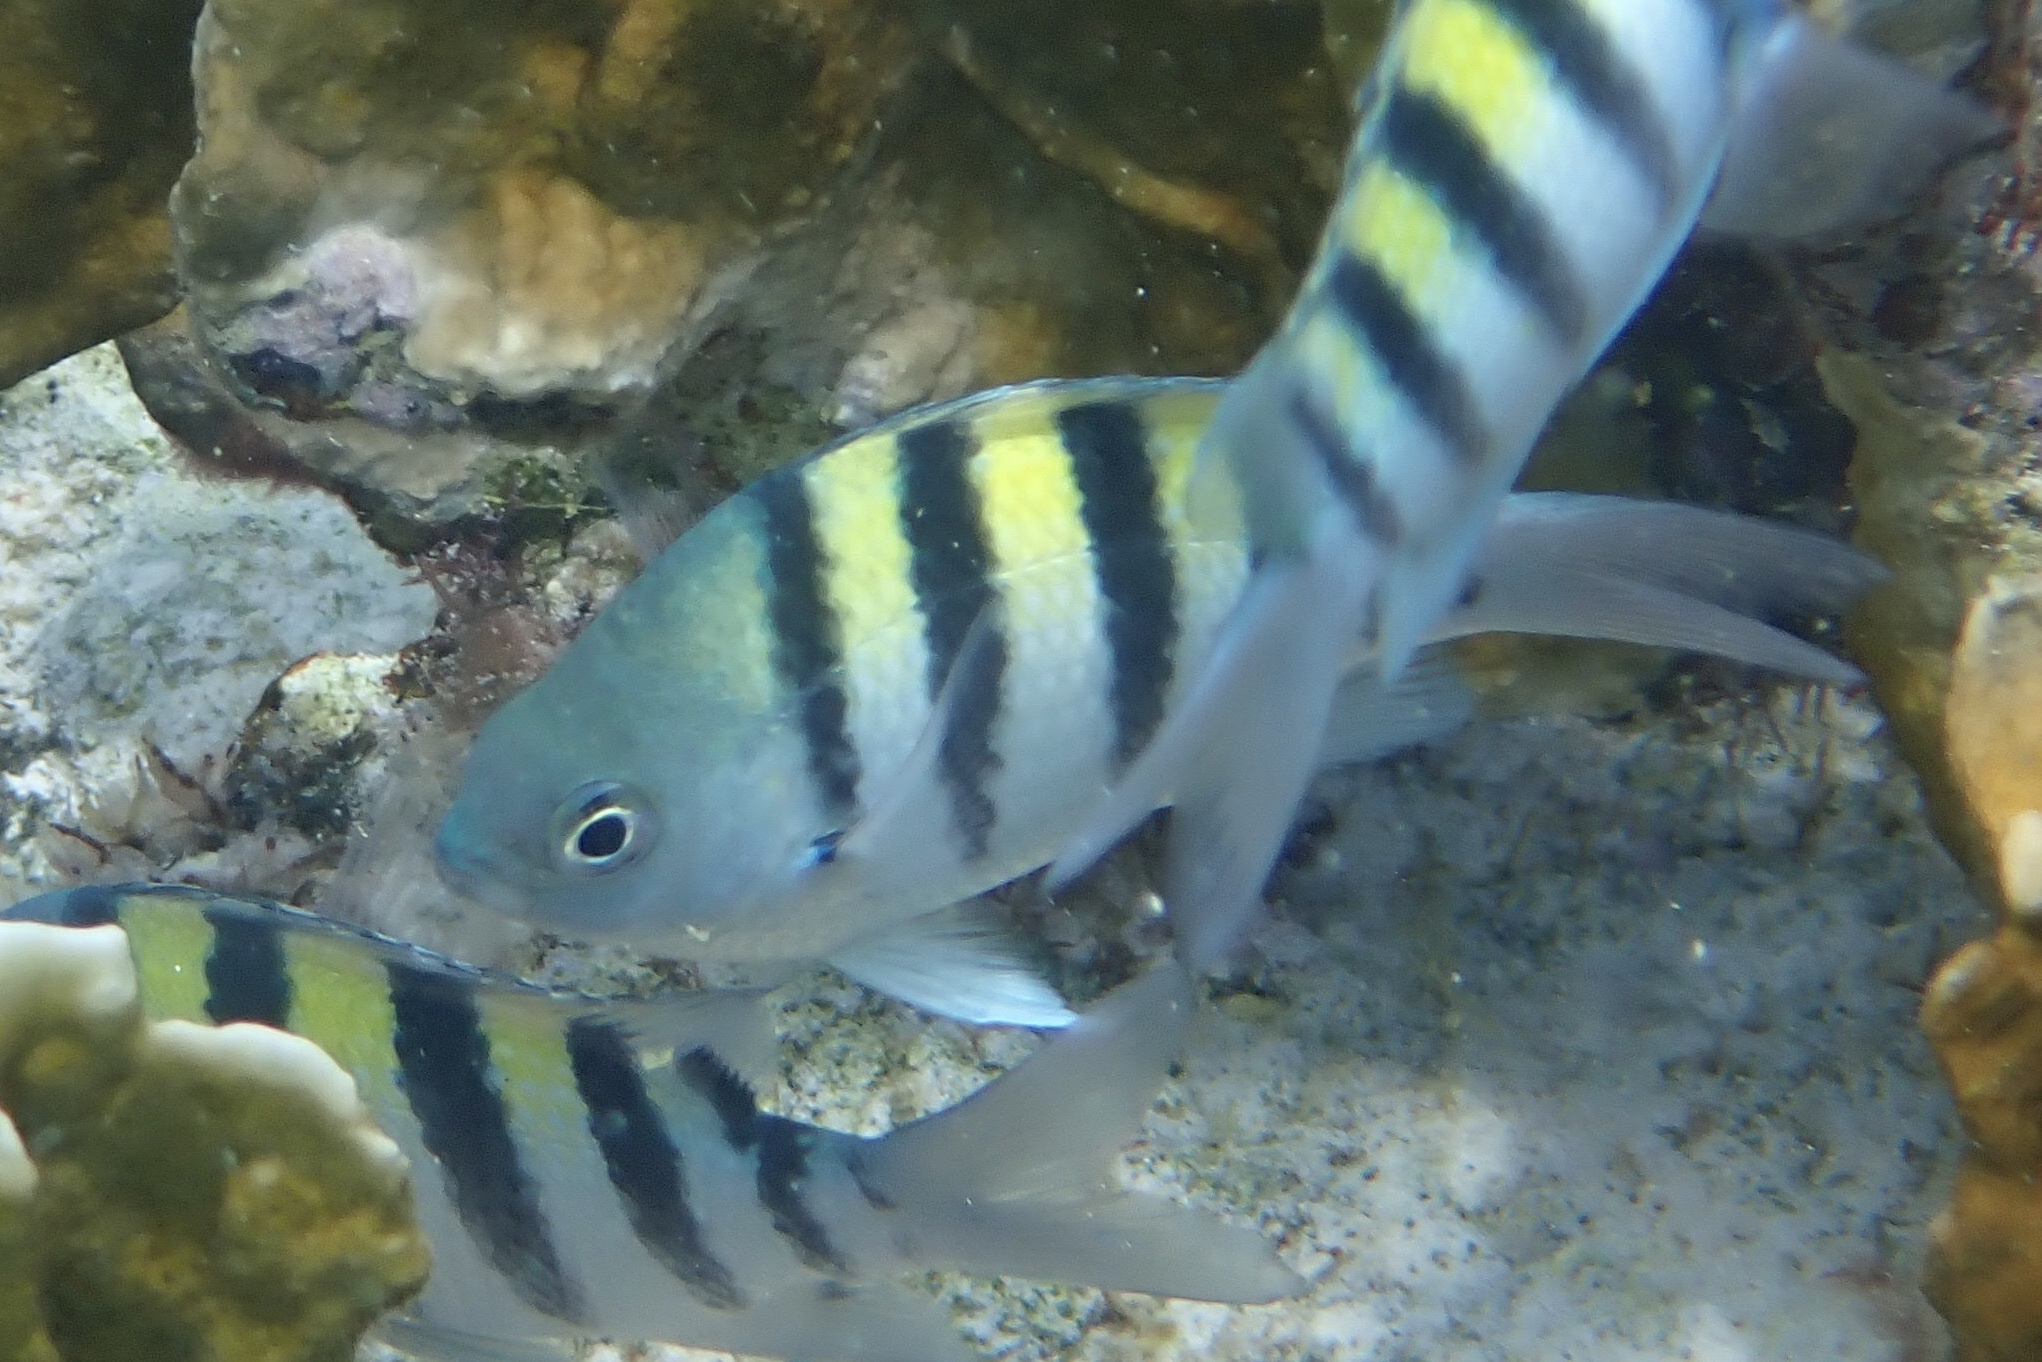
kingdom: Animalia
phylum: Chordata
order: Perciformes
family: Pomacentridae
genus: Abudefduf
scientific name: Abudefduf saxatilis
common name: Sergeant major
